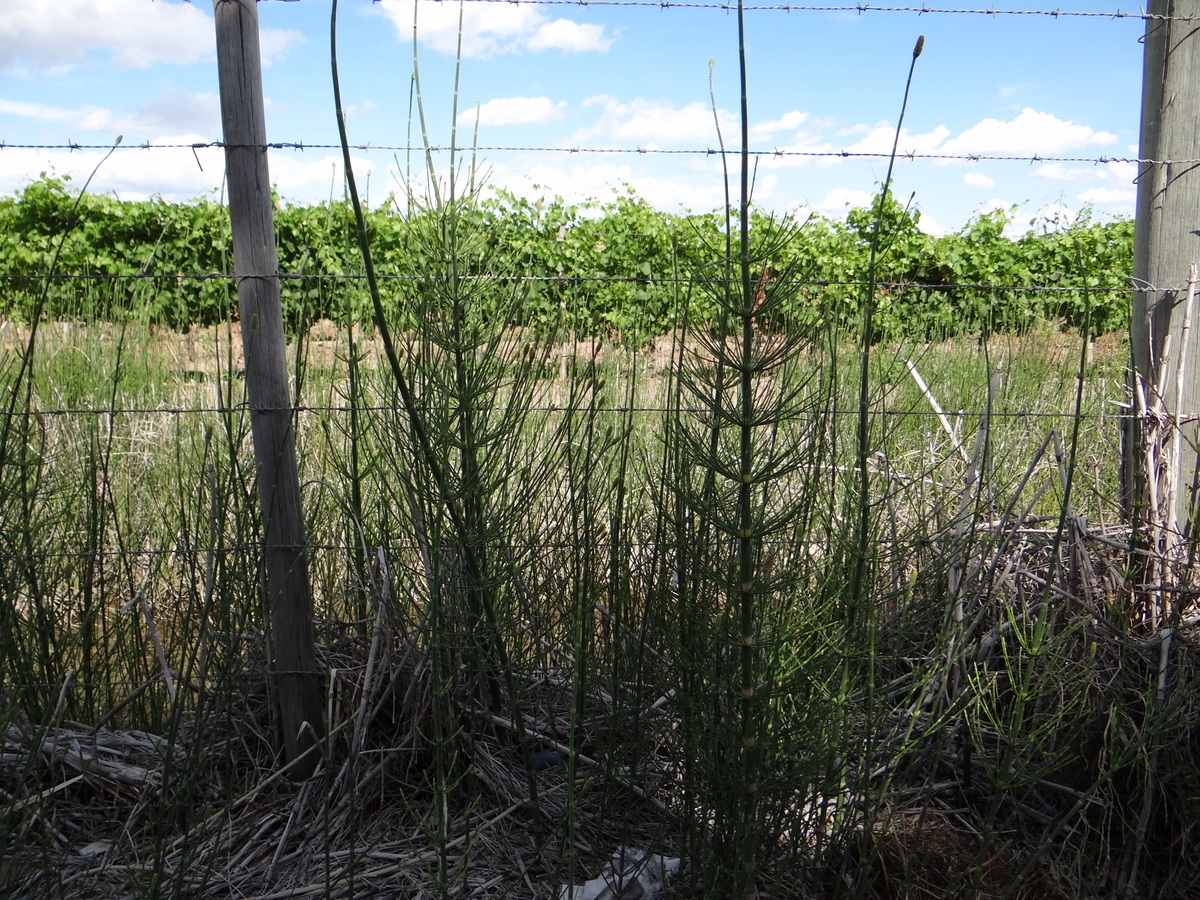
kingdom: Plantae
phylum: Tracheophyta
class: Polypodiopsida
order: Equisetales
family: Equisetaceae
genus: Equisetum
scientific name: Equisetum giganteum
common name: Giant horsetail
